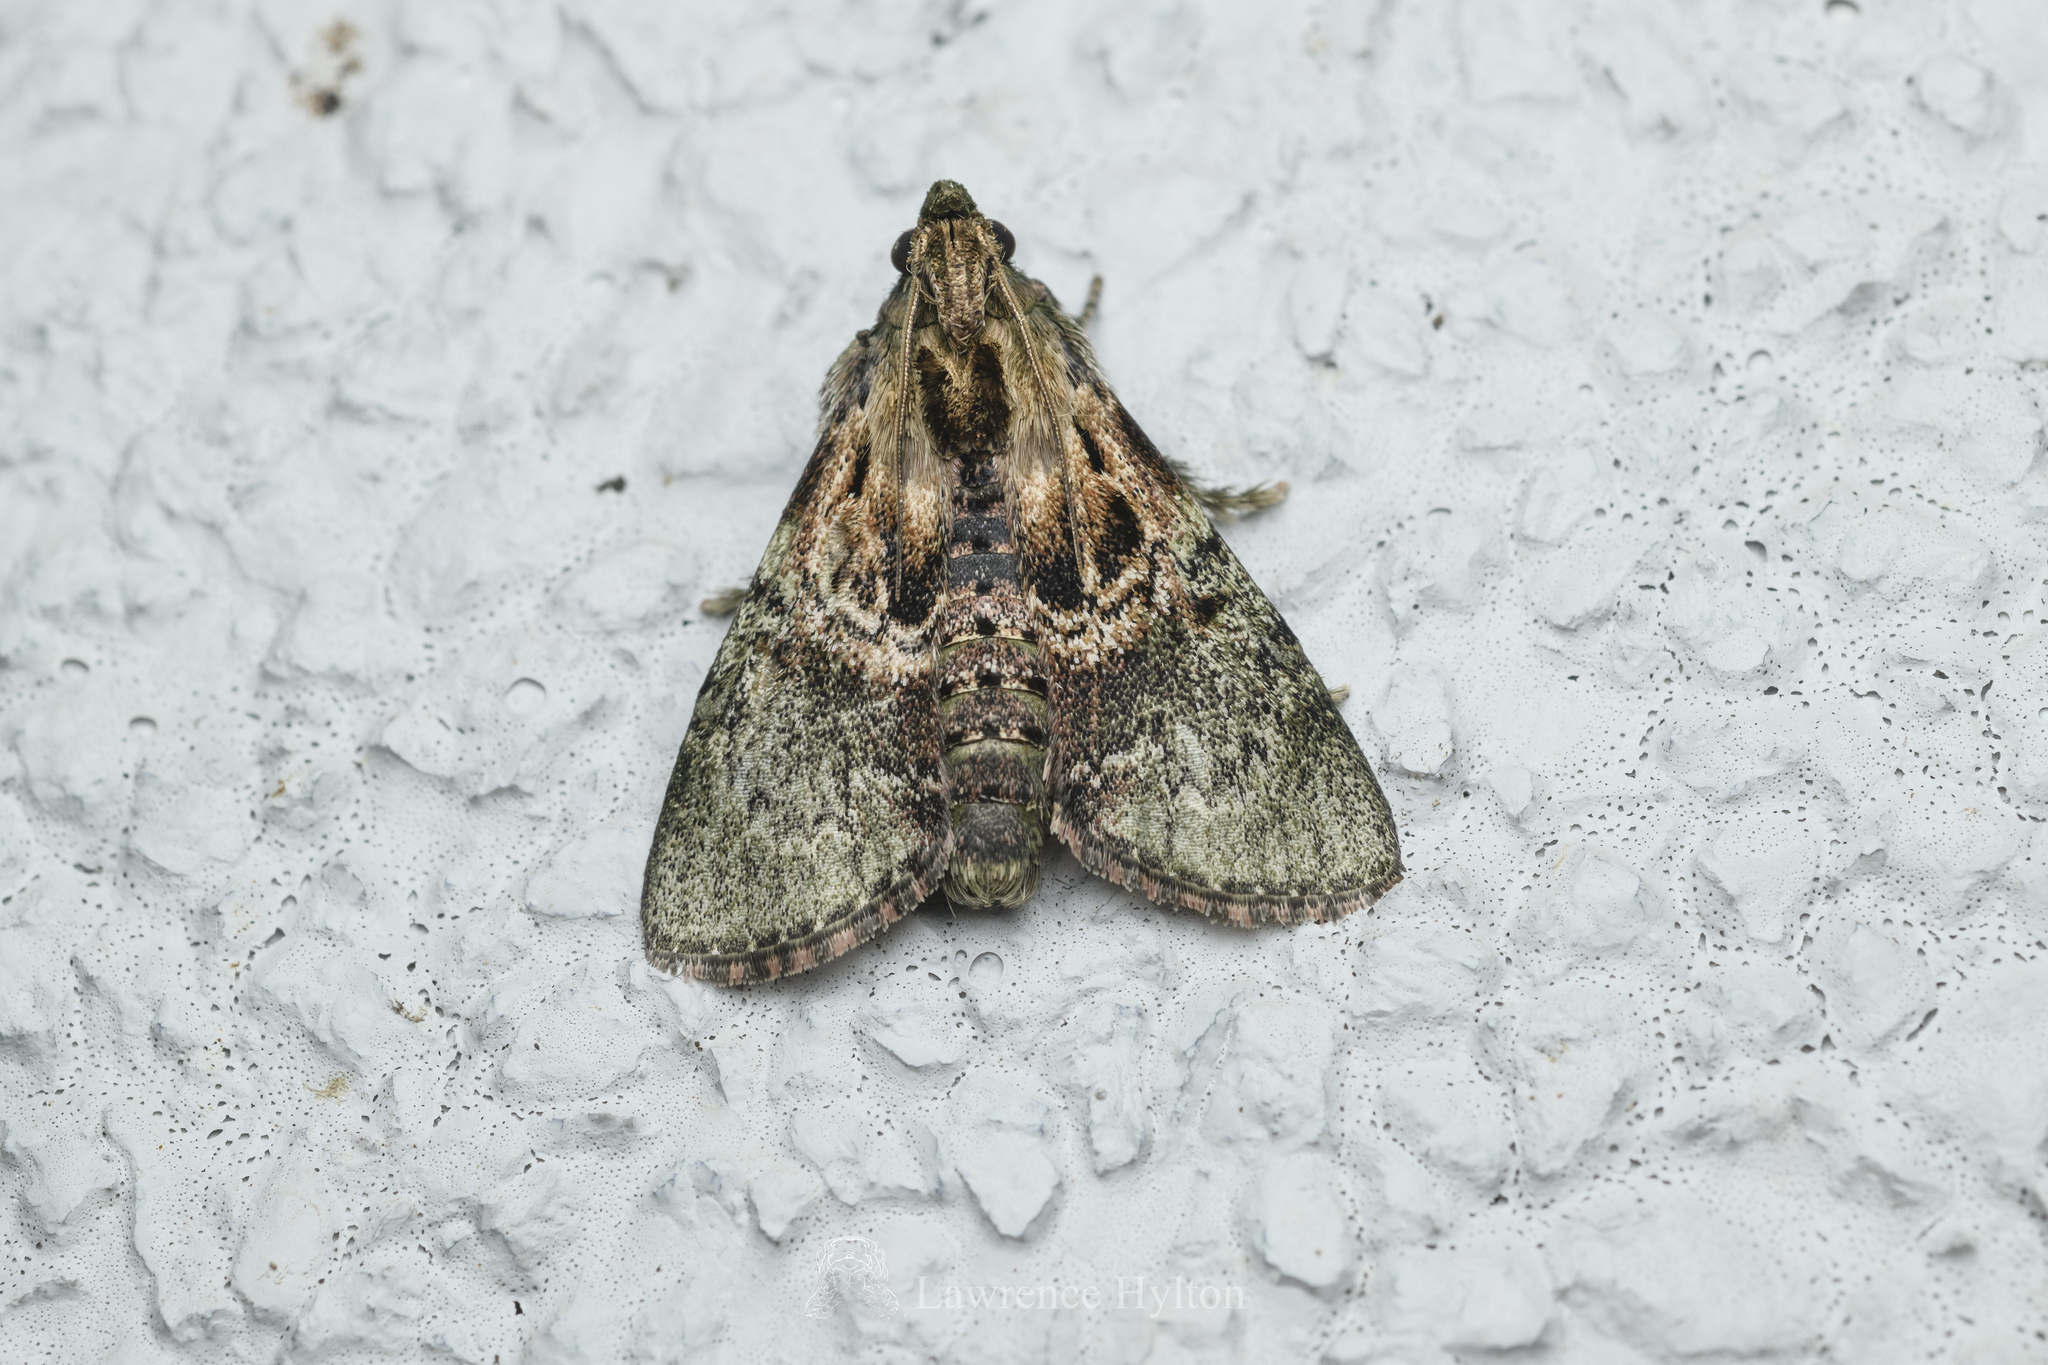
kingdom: Animalia
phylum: Arthropoda
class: Insecta
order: Lepidoptera
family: Pyralidae
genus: Locastra
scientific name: Locastra nigrilineata
